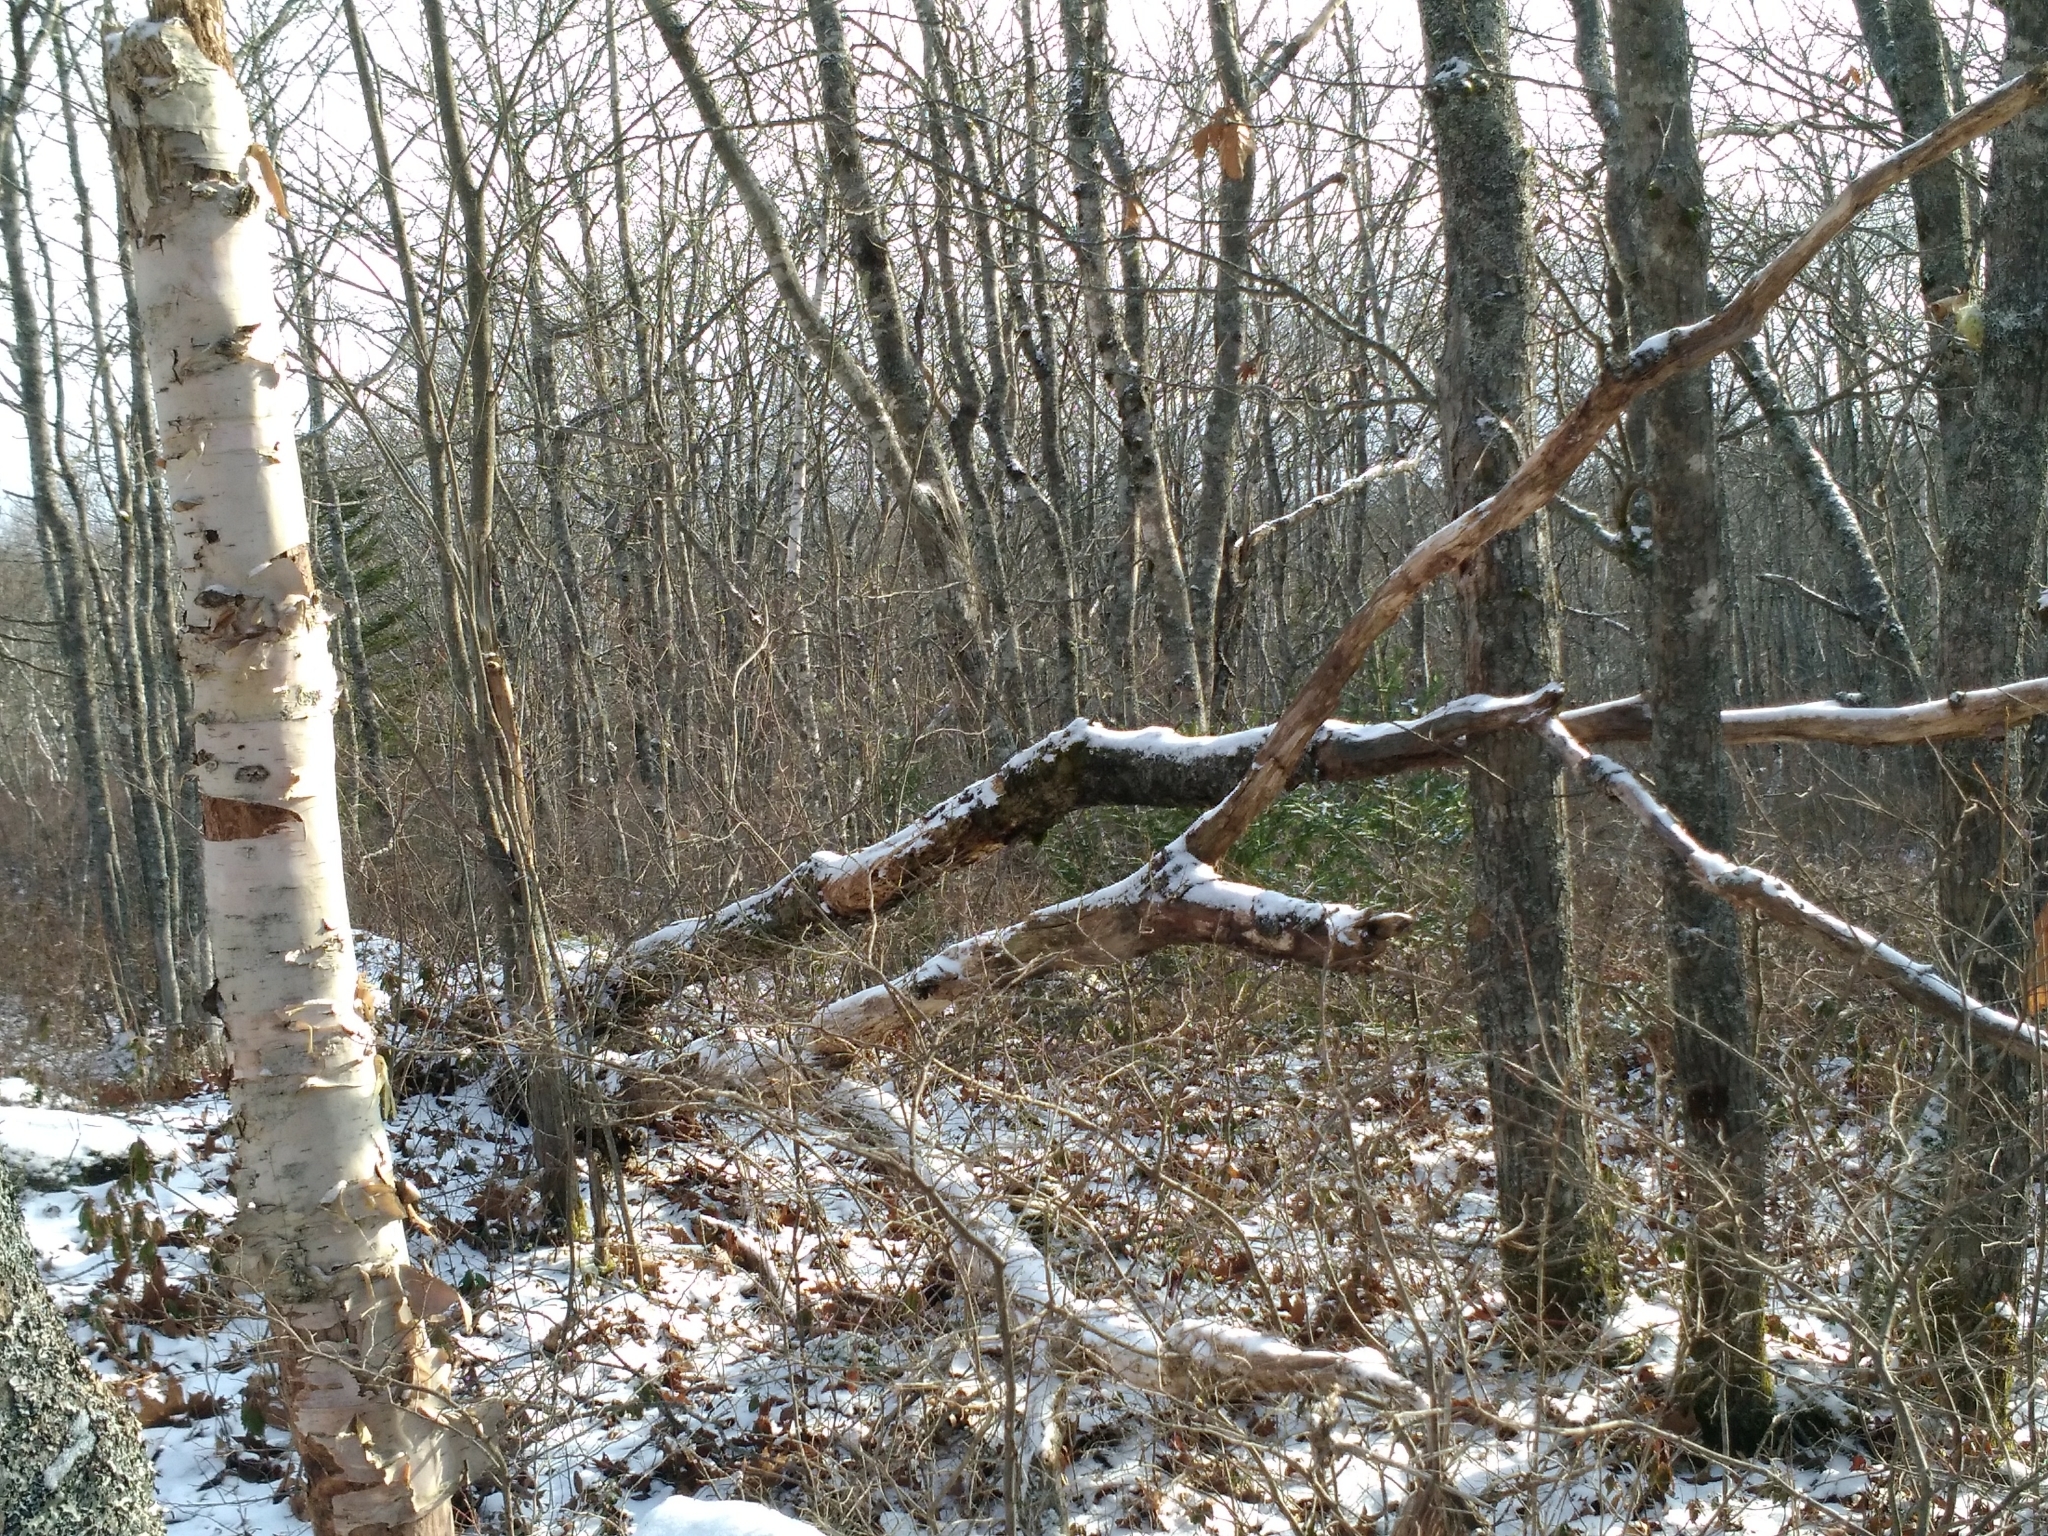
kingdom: Plantae
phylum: Tracheophyta
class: Magnoliopsida
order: Fagales
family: Betulaceae
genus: Betula
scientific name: Betula papyrifera
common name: Paper birch
